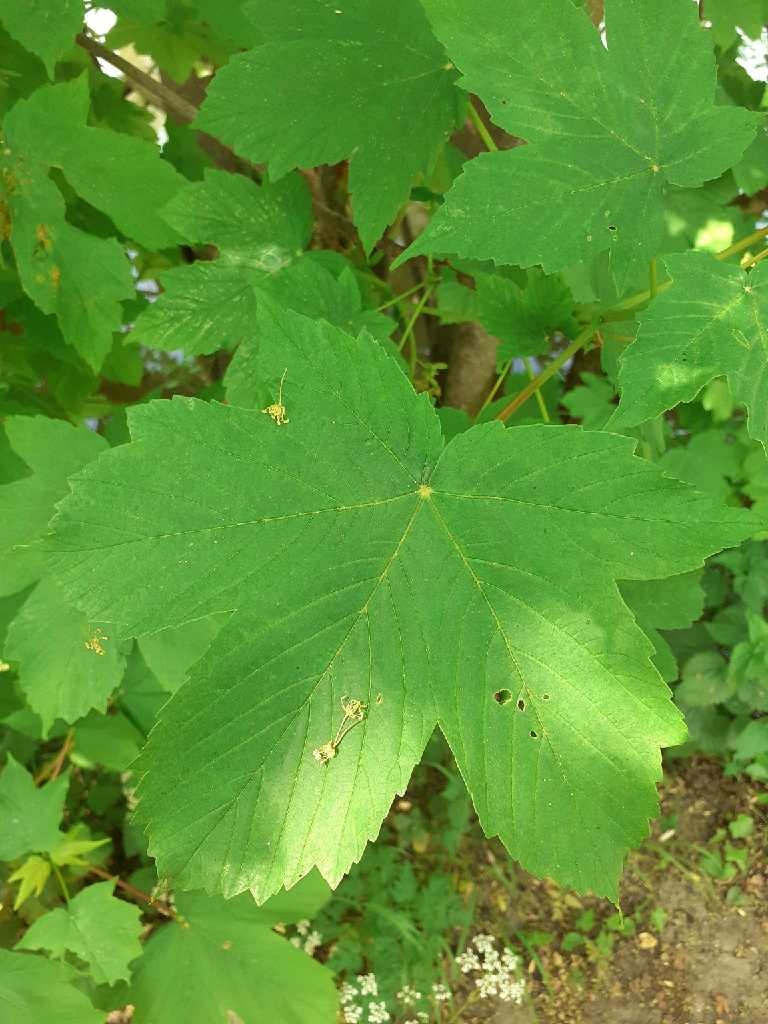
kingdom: Plantae
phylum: Tracheophyta
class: Magnoliopsida
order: Sapindales
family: Sapindaceae
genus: Acer
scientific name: Acer pseudoplatanus
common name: Sycamore
